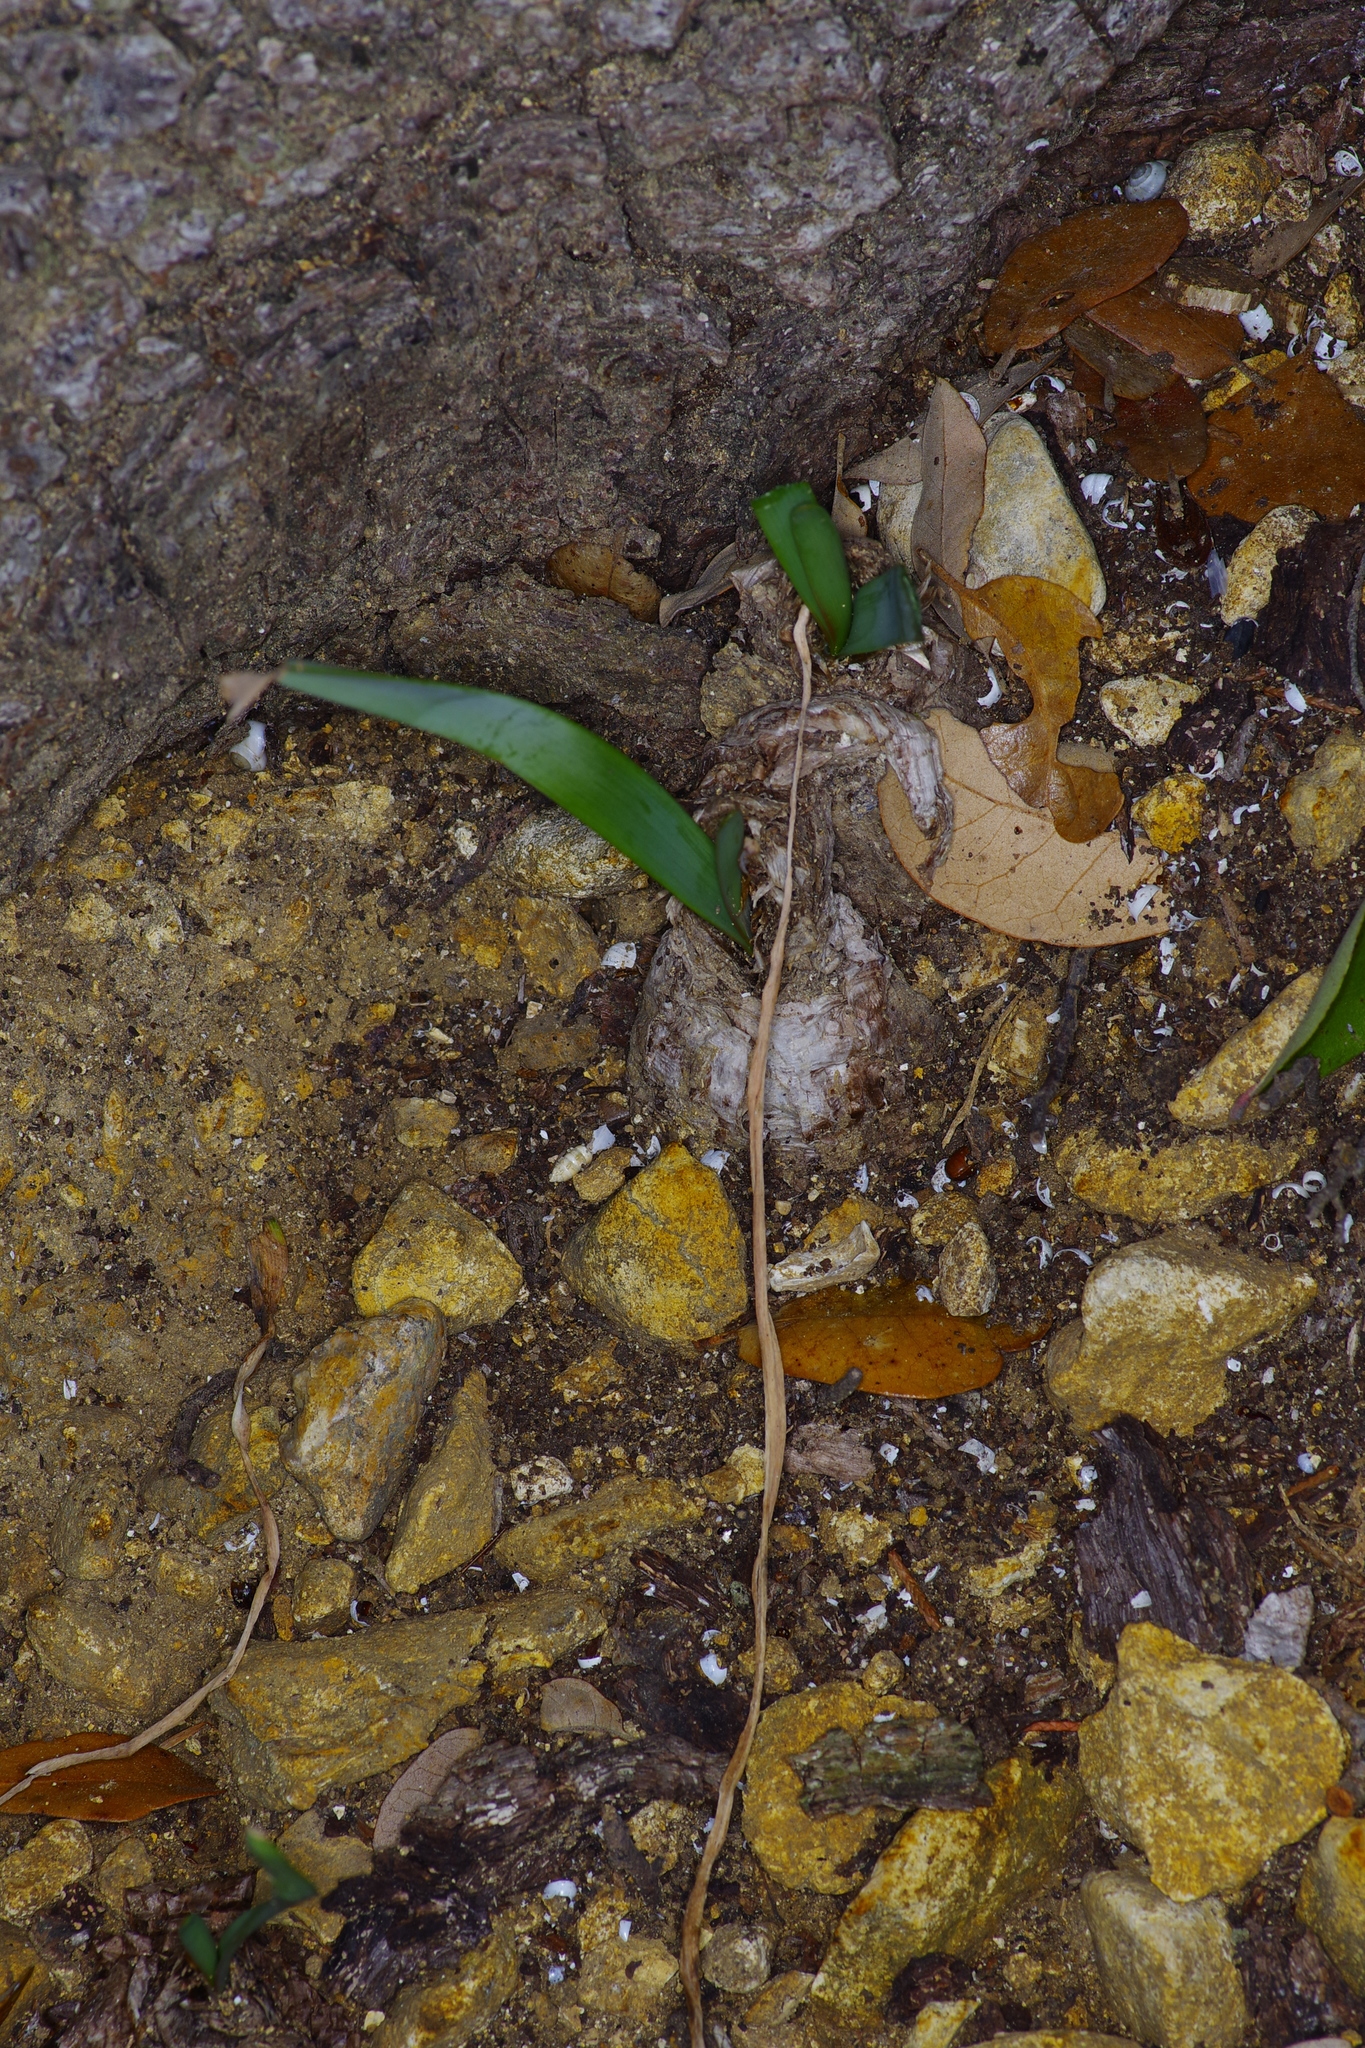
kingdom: Plantae
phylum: Tracheophyta
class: Liliopsida
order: Asparagales
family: Amaryllidaceae
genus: Nothoscordum
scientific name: Nothoscordum bivalve
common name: Crow-poison
